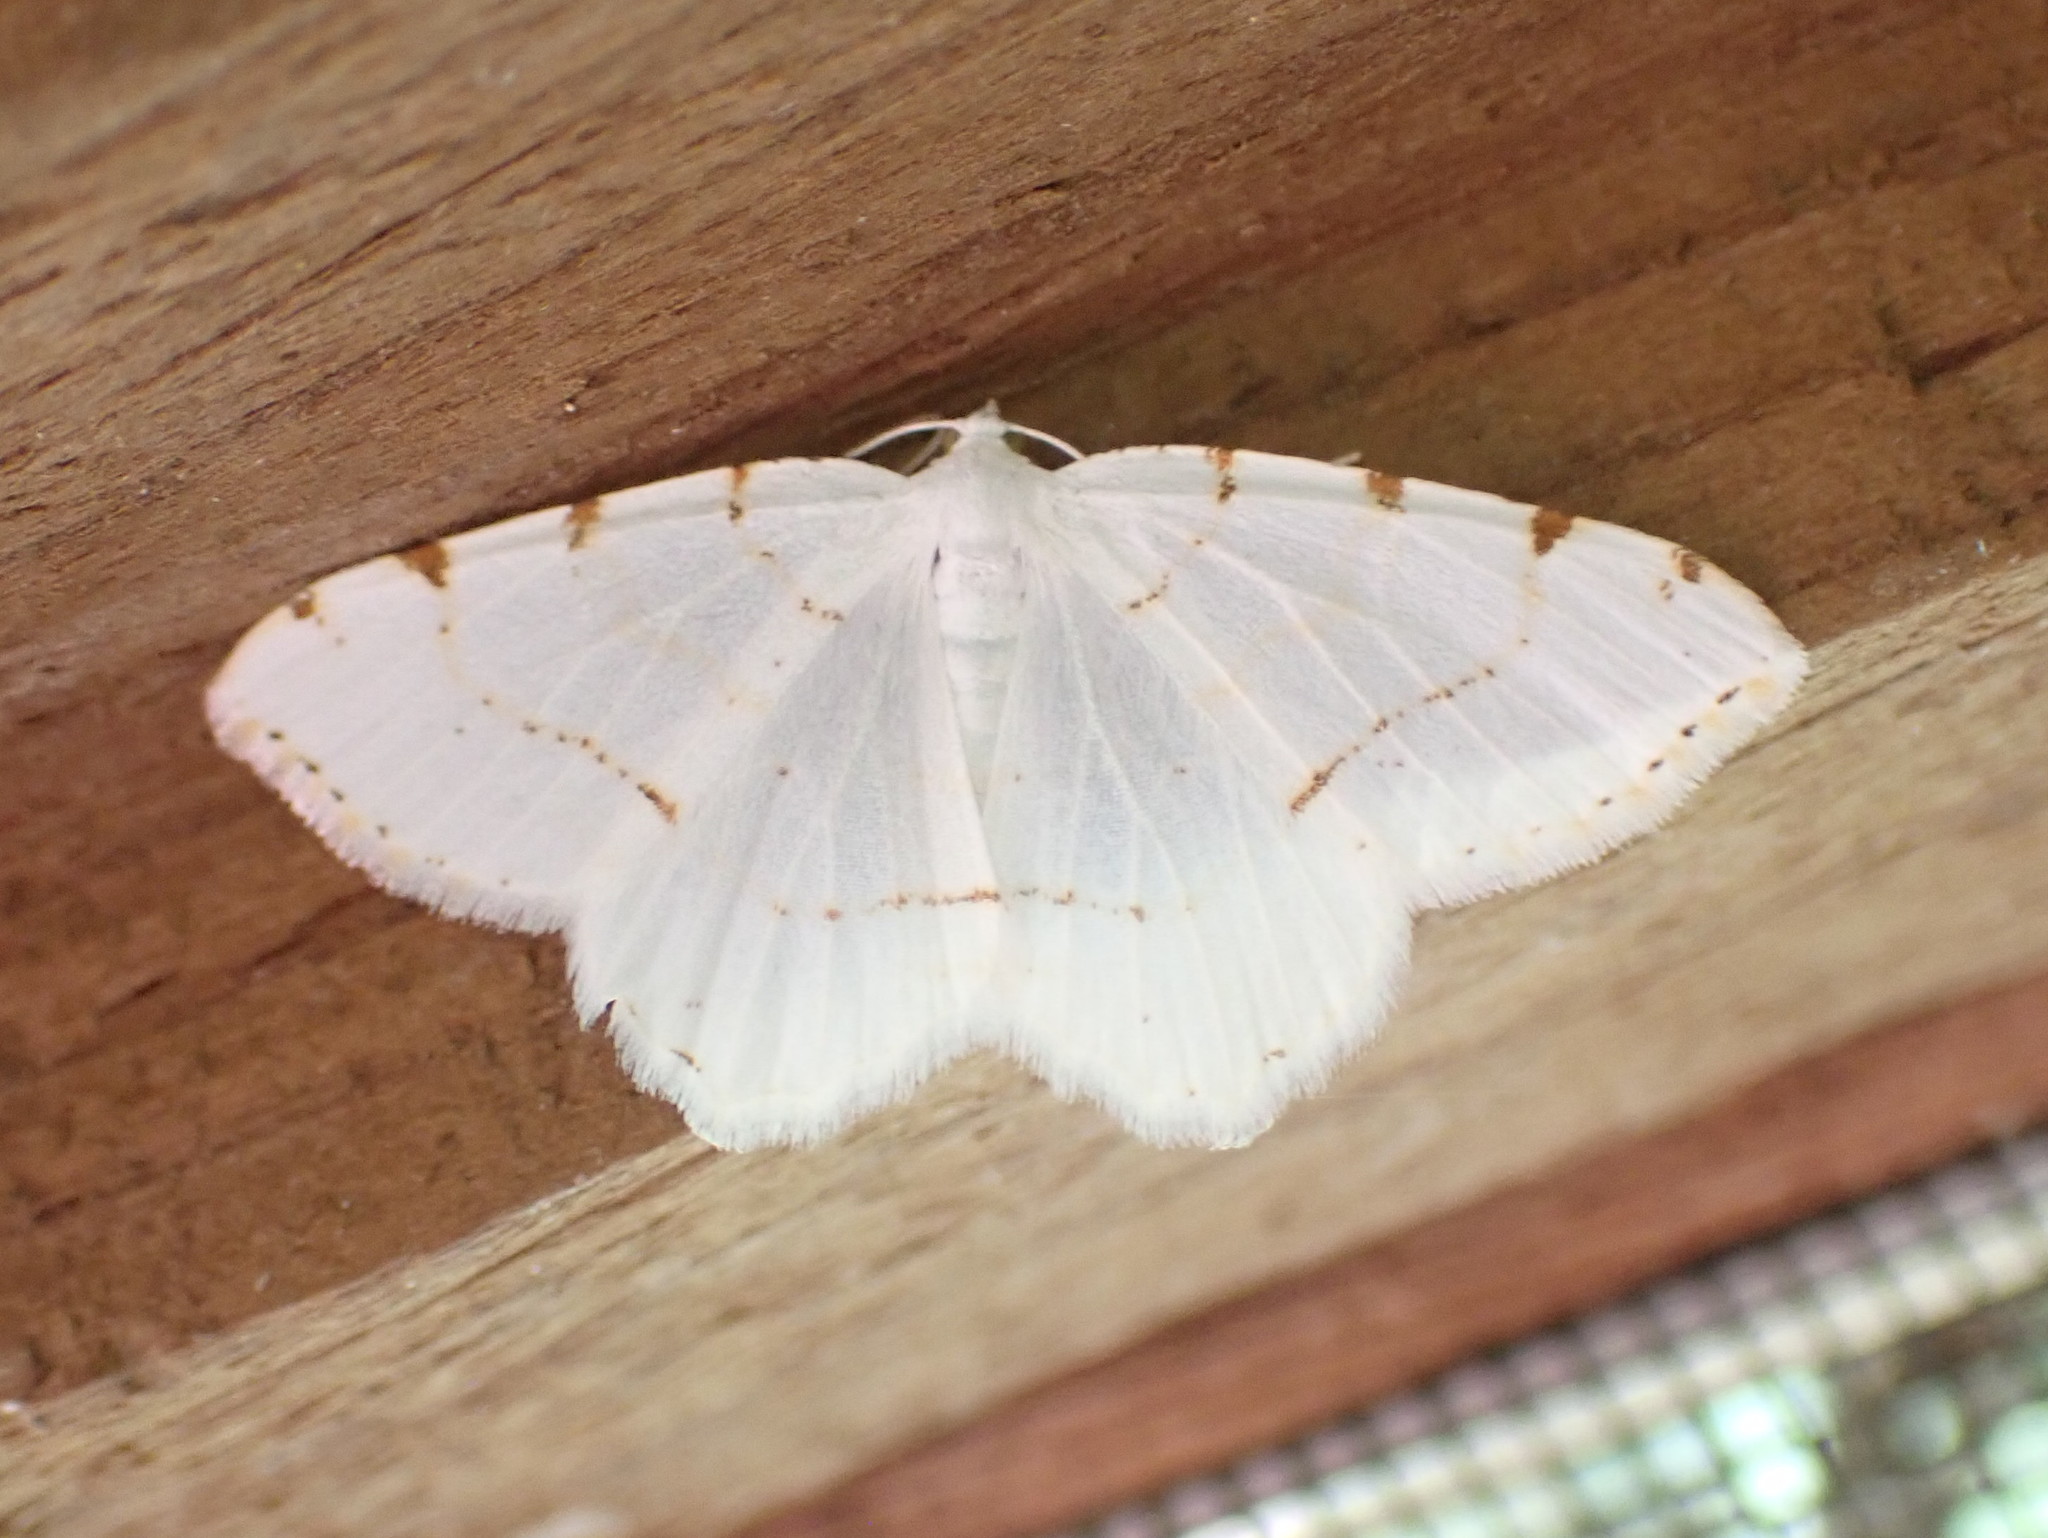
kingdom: Animalia
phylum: Arthropoda
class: Insecta
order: Lepidoptera
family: Geometridae
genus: Macaria
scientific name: Macaria pustularia
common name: Lesser maple spanworm moth
